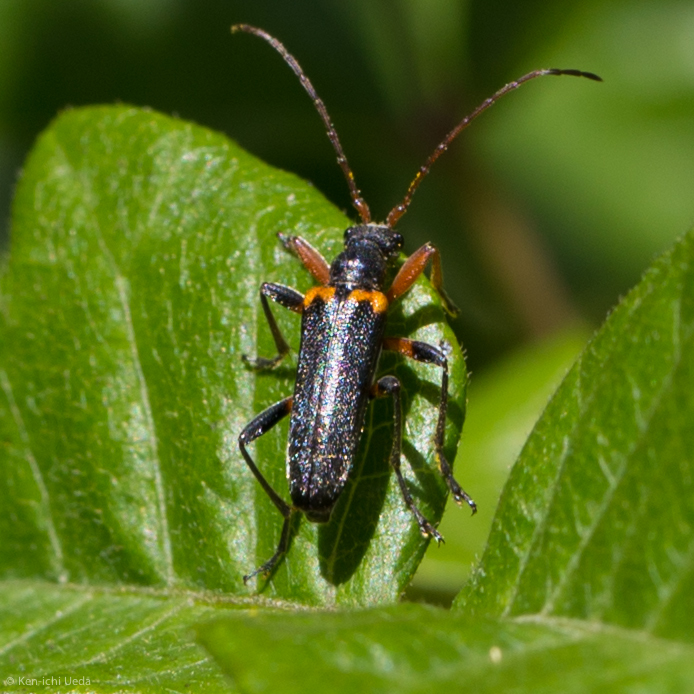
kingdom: Animalia
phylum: Arthropoda
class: Insecta
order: Coleoptera
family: Cerambycidae
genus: Cortodera
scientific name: Cortodera cubitalis
